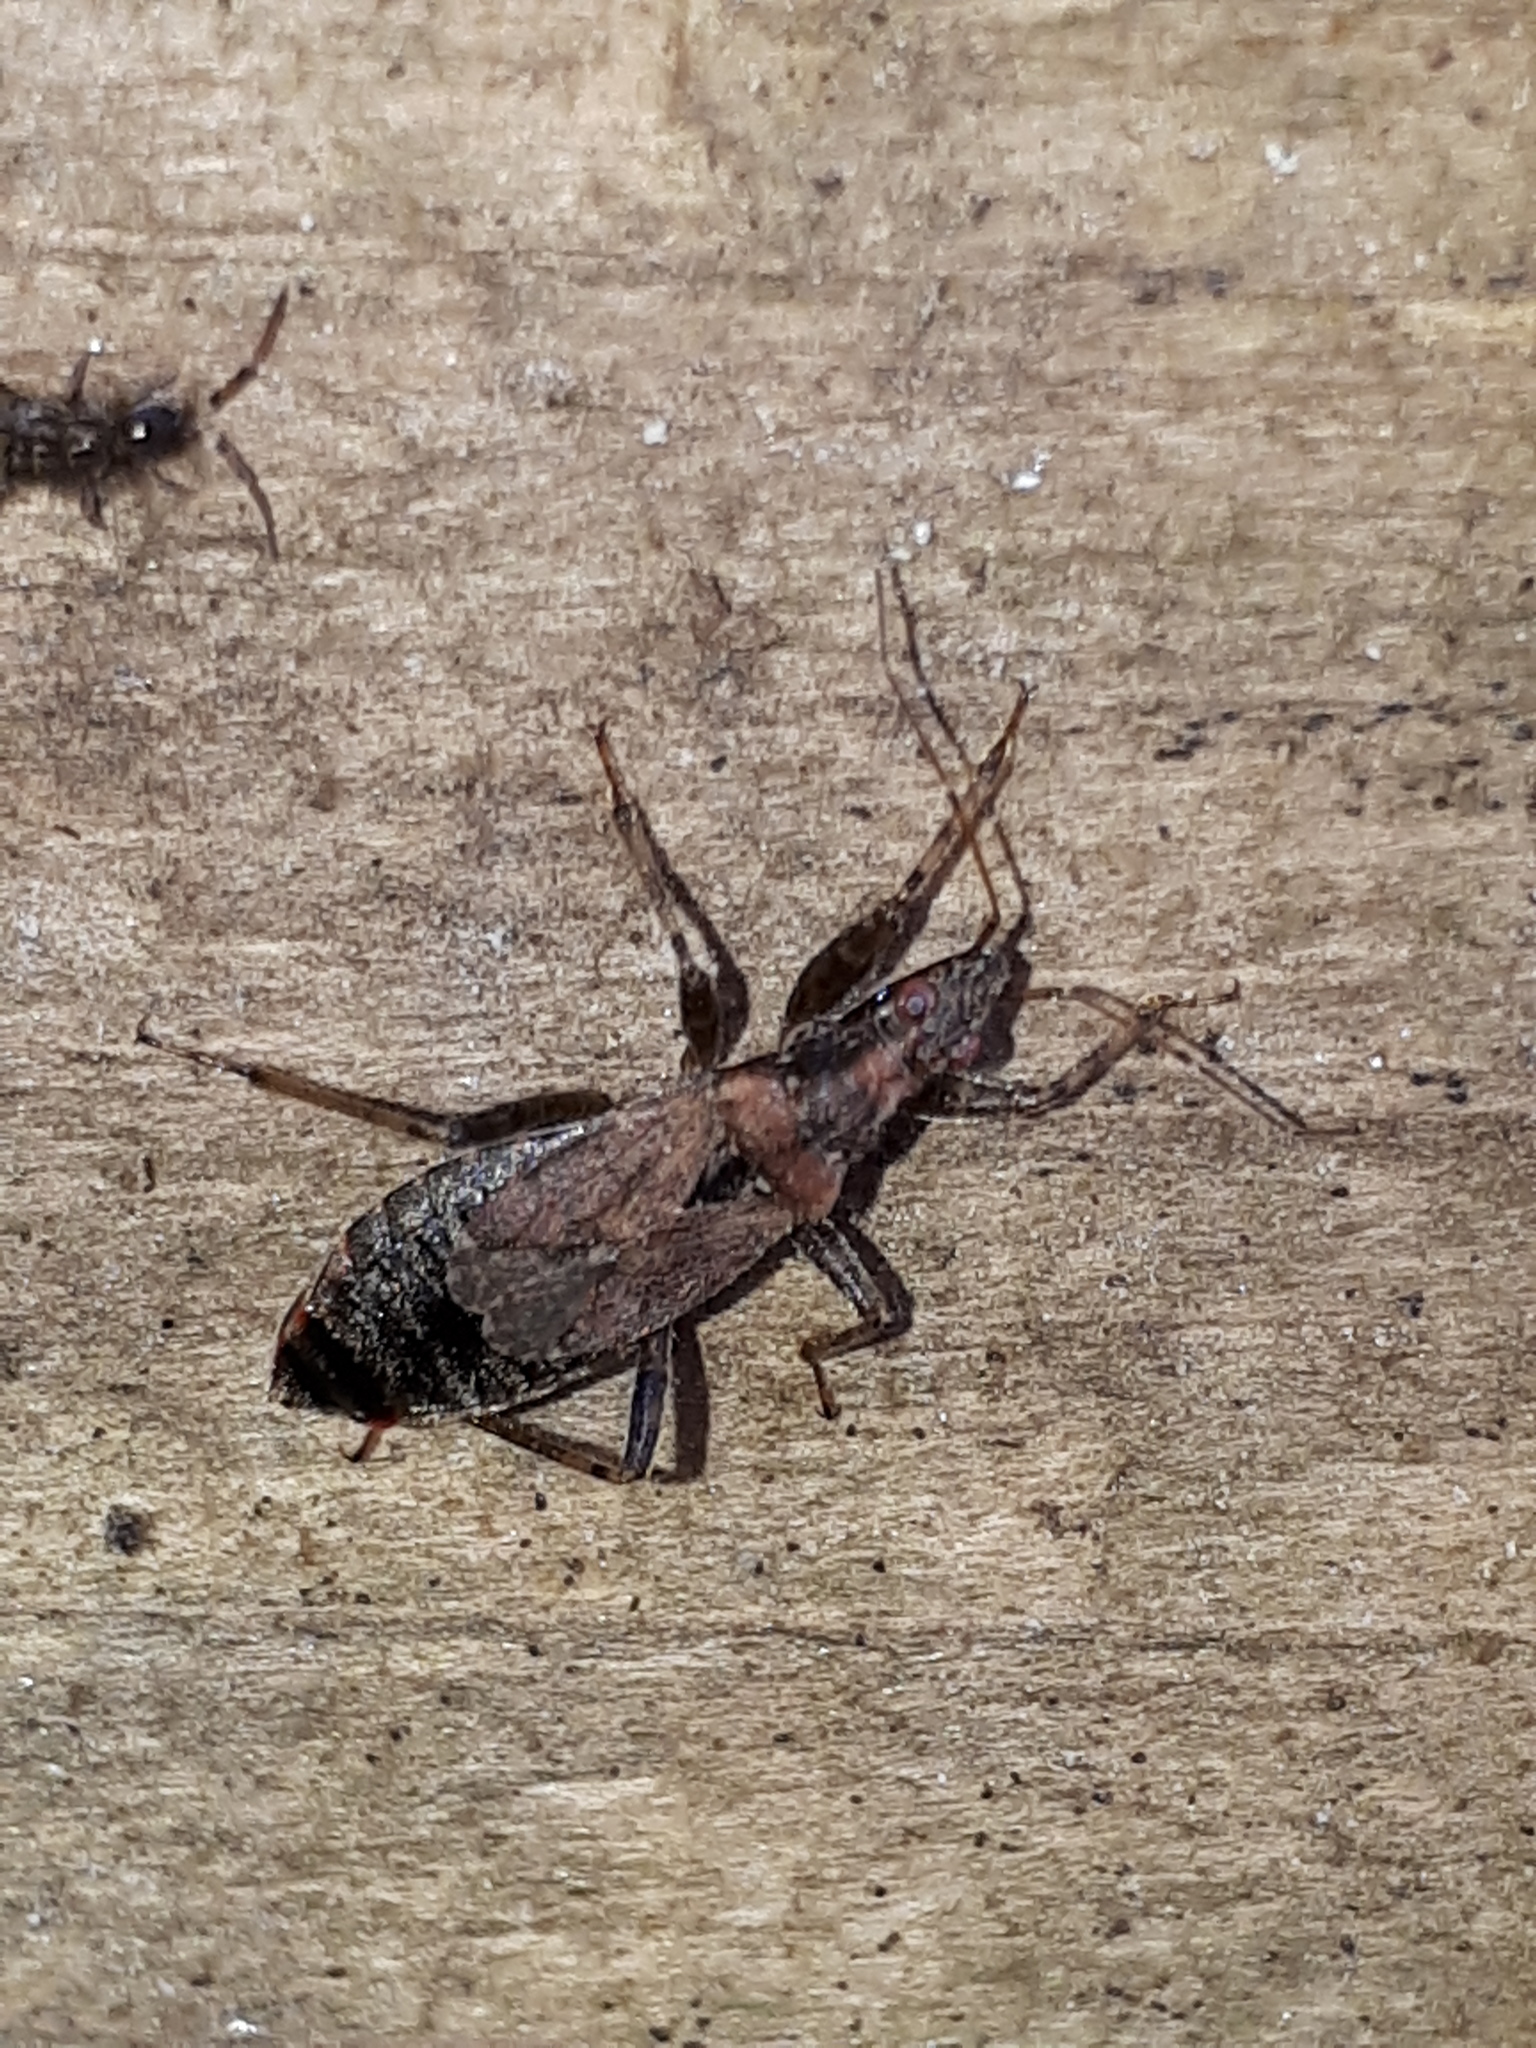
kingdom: Animalia
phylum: Arthropoda
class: Insecta
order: Hemiptera
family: Nabidae
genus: Himacerus
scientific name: Himacerus mirmicoides
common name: Ant damsel bug
